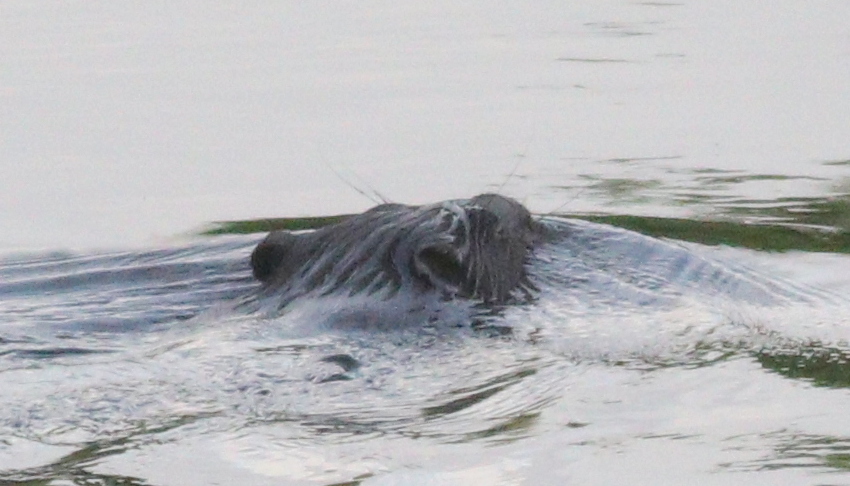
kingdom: Animalia
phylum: Chordata
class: Mammalia
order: Rodentia
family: Castoridae
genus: Castor
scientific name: Castor fiber
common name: Eurasian beaver
